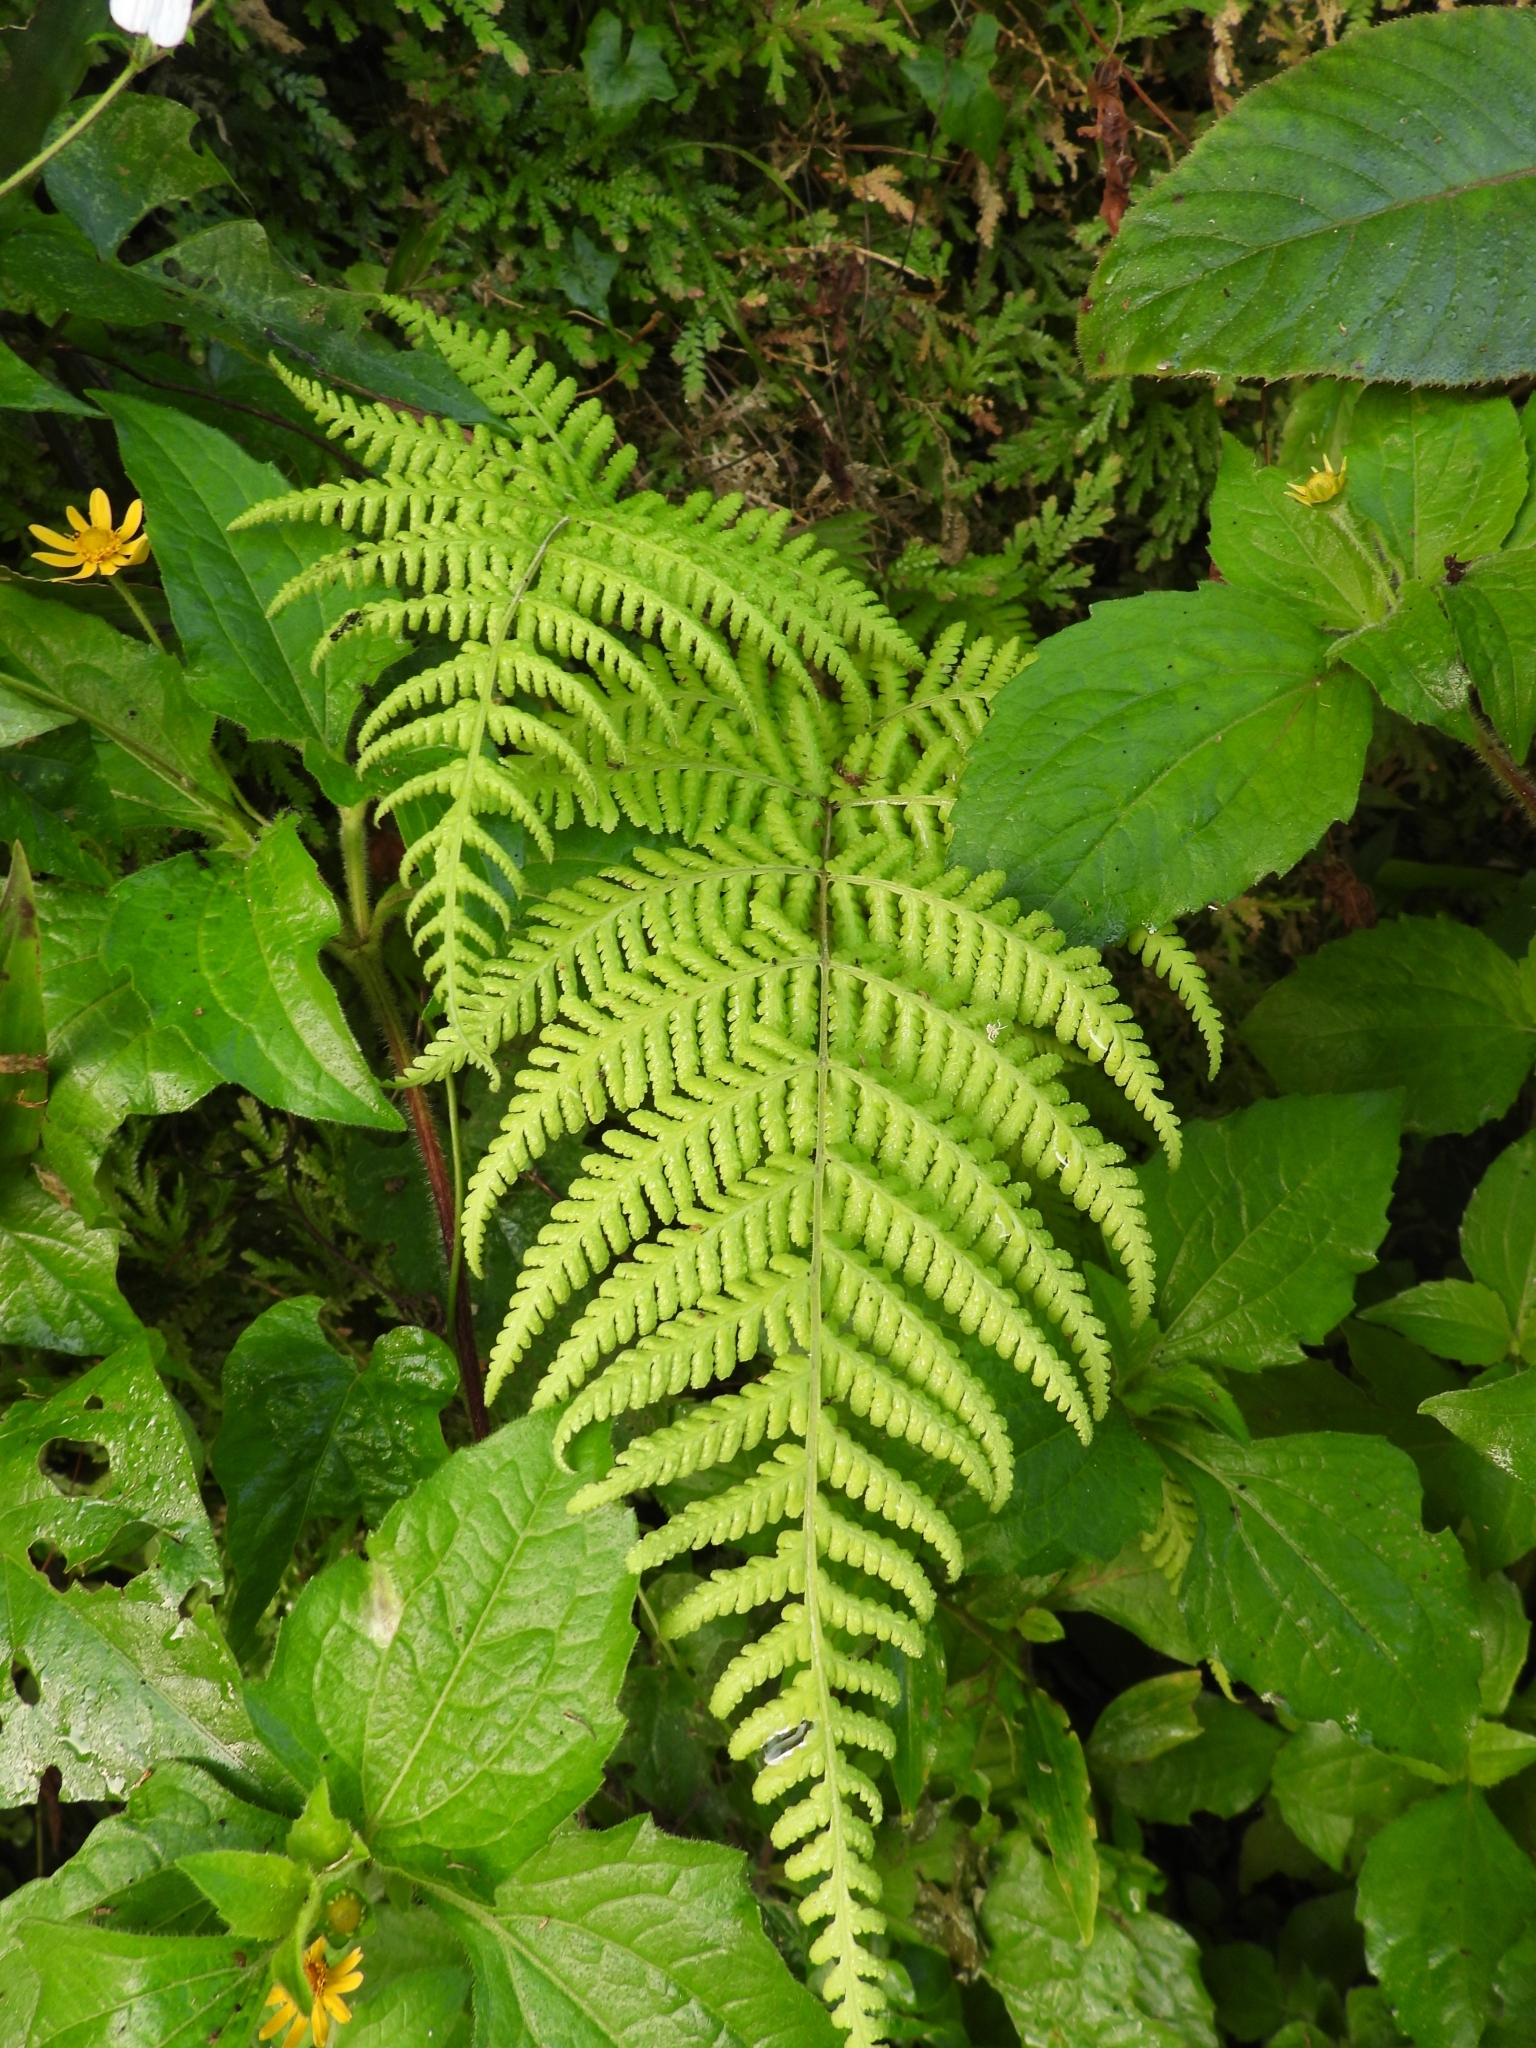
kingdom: Plantae
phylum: Tracheophyta
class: Polypodiopsida
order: Polypodiales
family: Thelypteridaceae
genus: Macrothelypteris
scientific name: Macrothelypteris torresiana
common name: Swordfern
